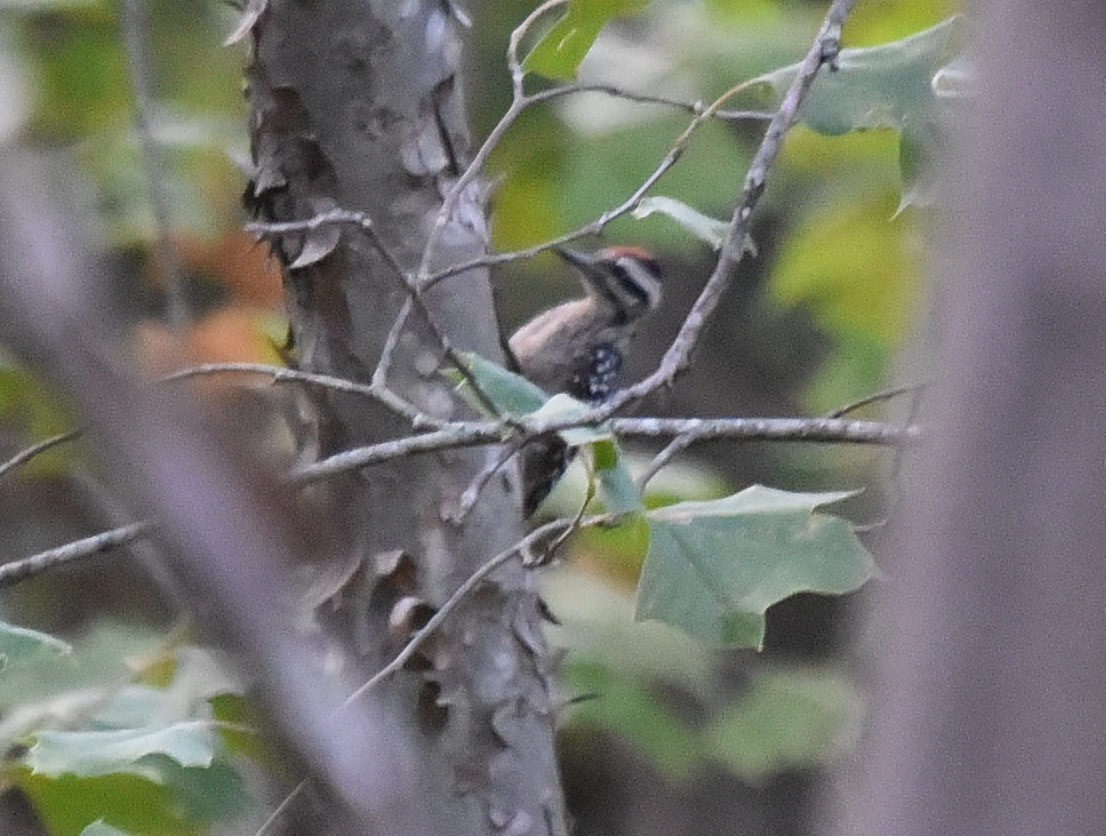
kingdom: Animalia
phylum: Chordata
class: Aves
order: Piciformes
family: Picidae
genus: Dryobates
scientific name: Dryobates scalaris
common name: Ladder-backed woodpecker
